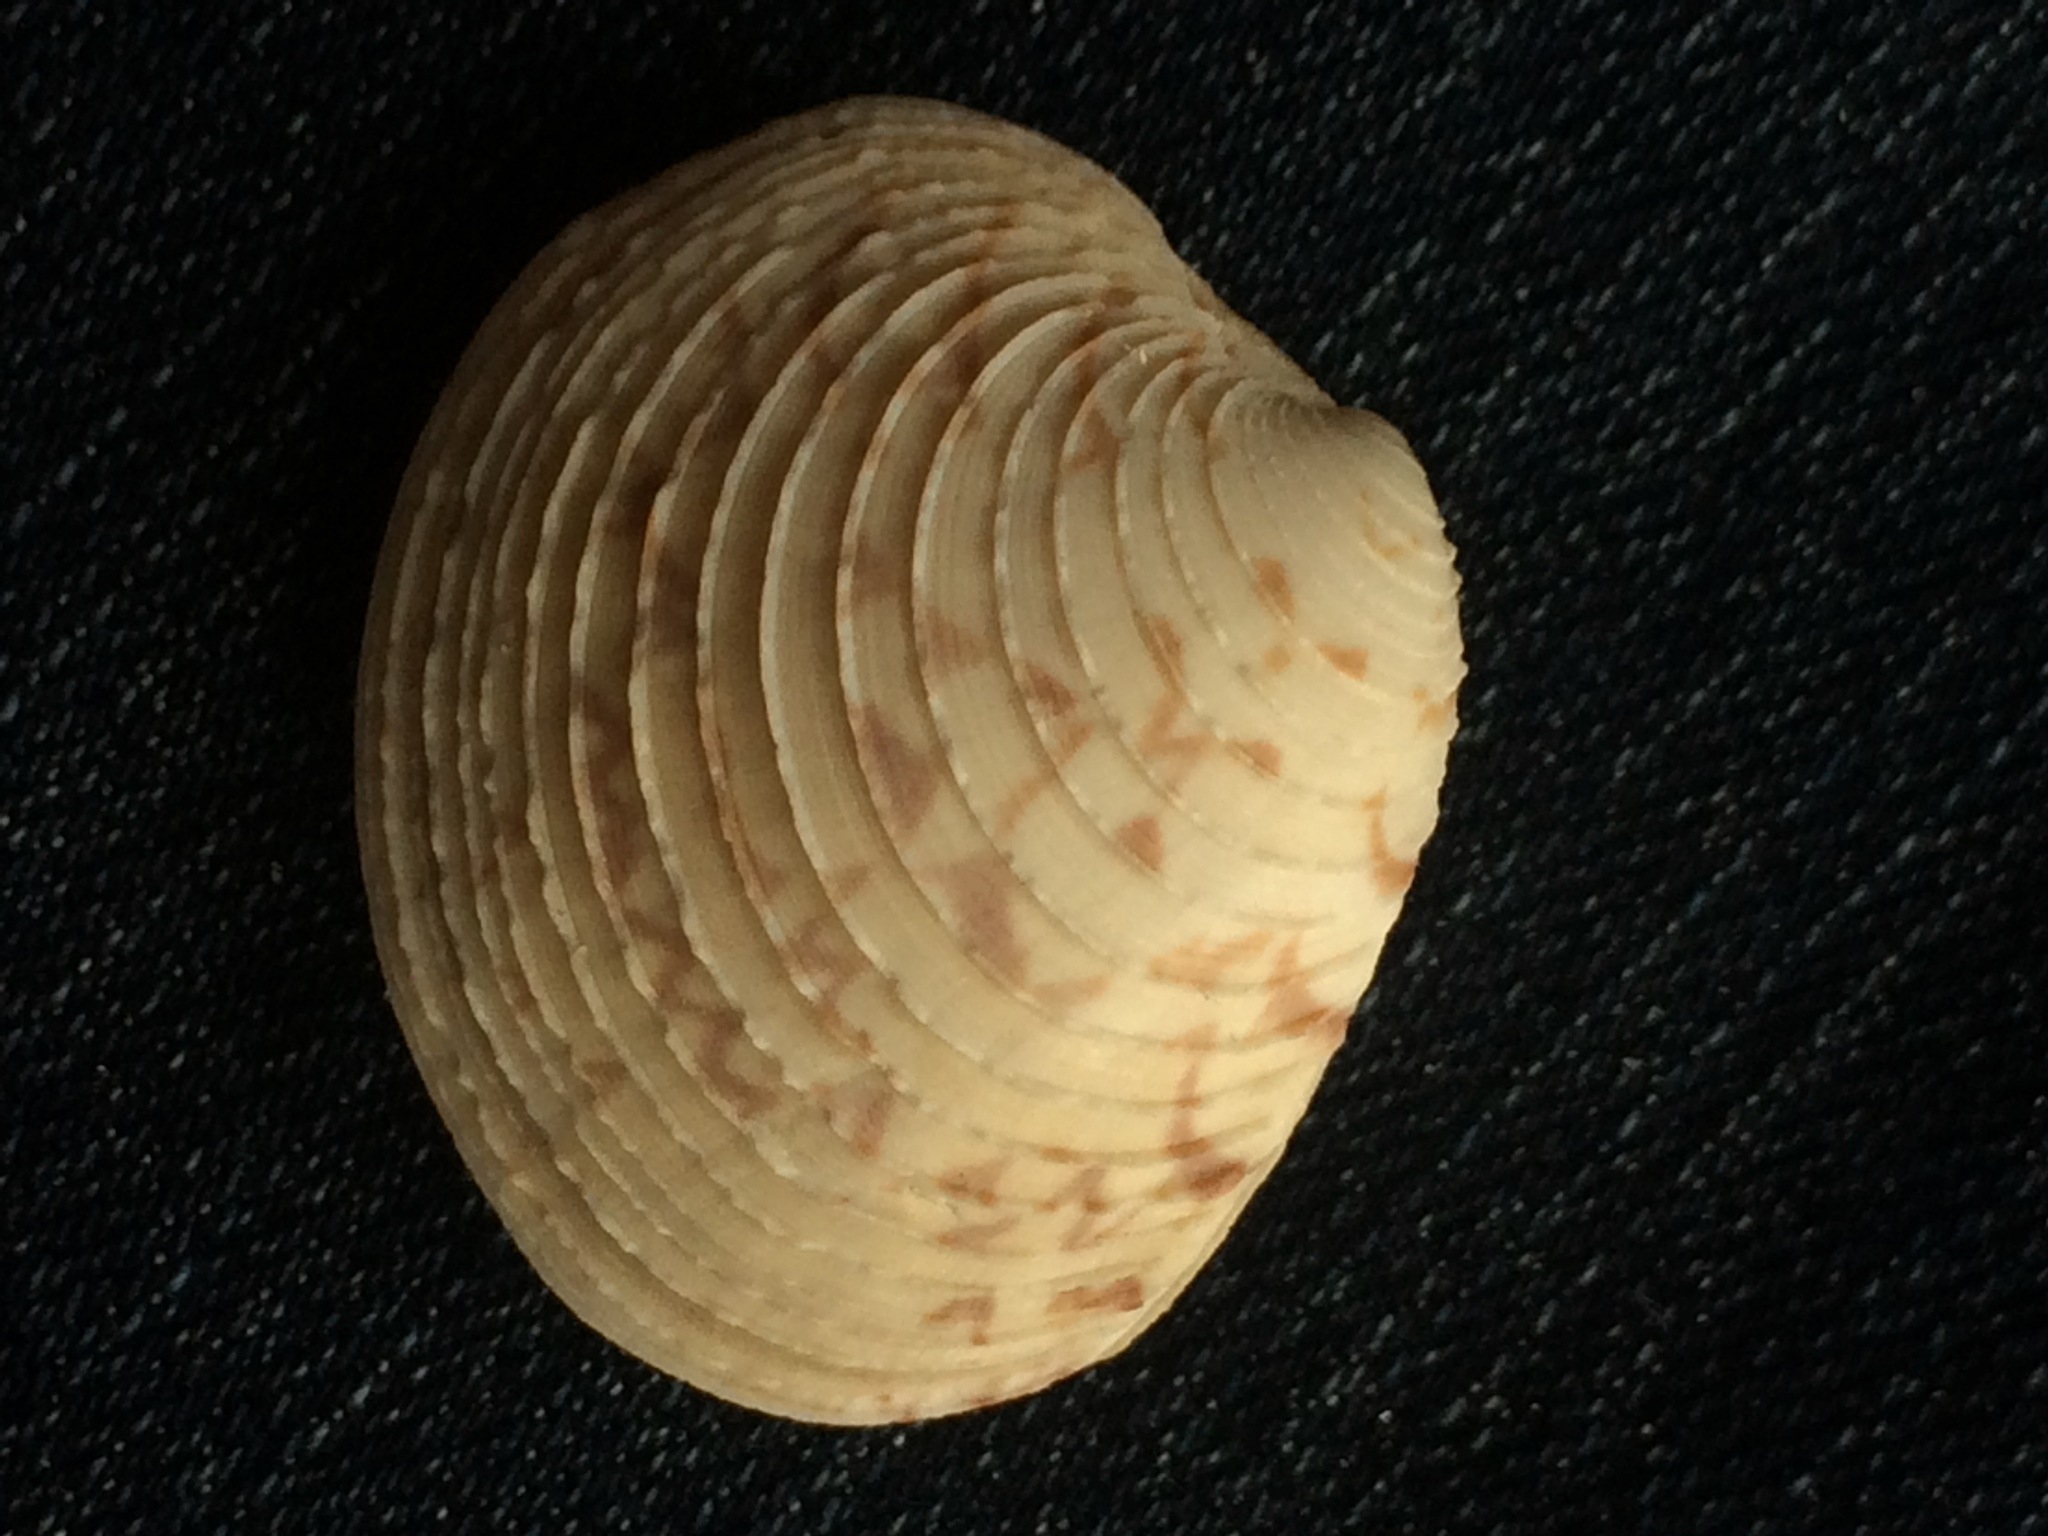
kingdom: Animalia
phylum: Mollusca
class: Bivalvia
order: Venerida
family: Veneridae
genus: Mercenaria
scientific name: Mercenaria campechiensis
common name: Südliche quahog-muschel
